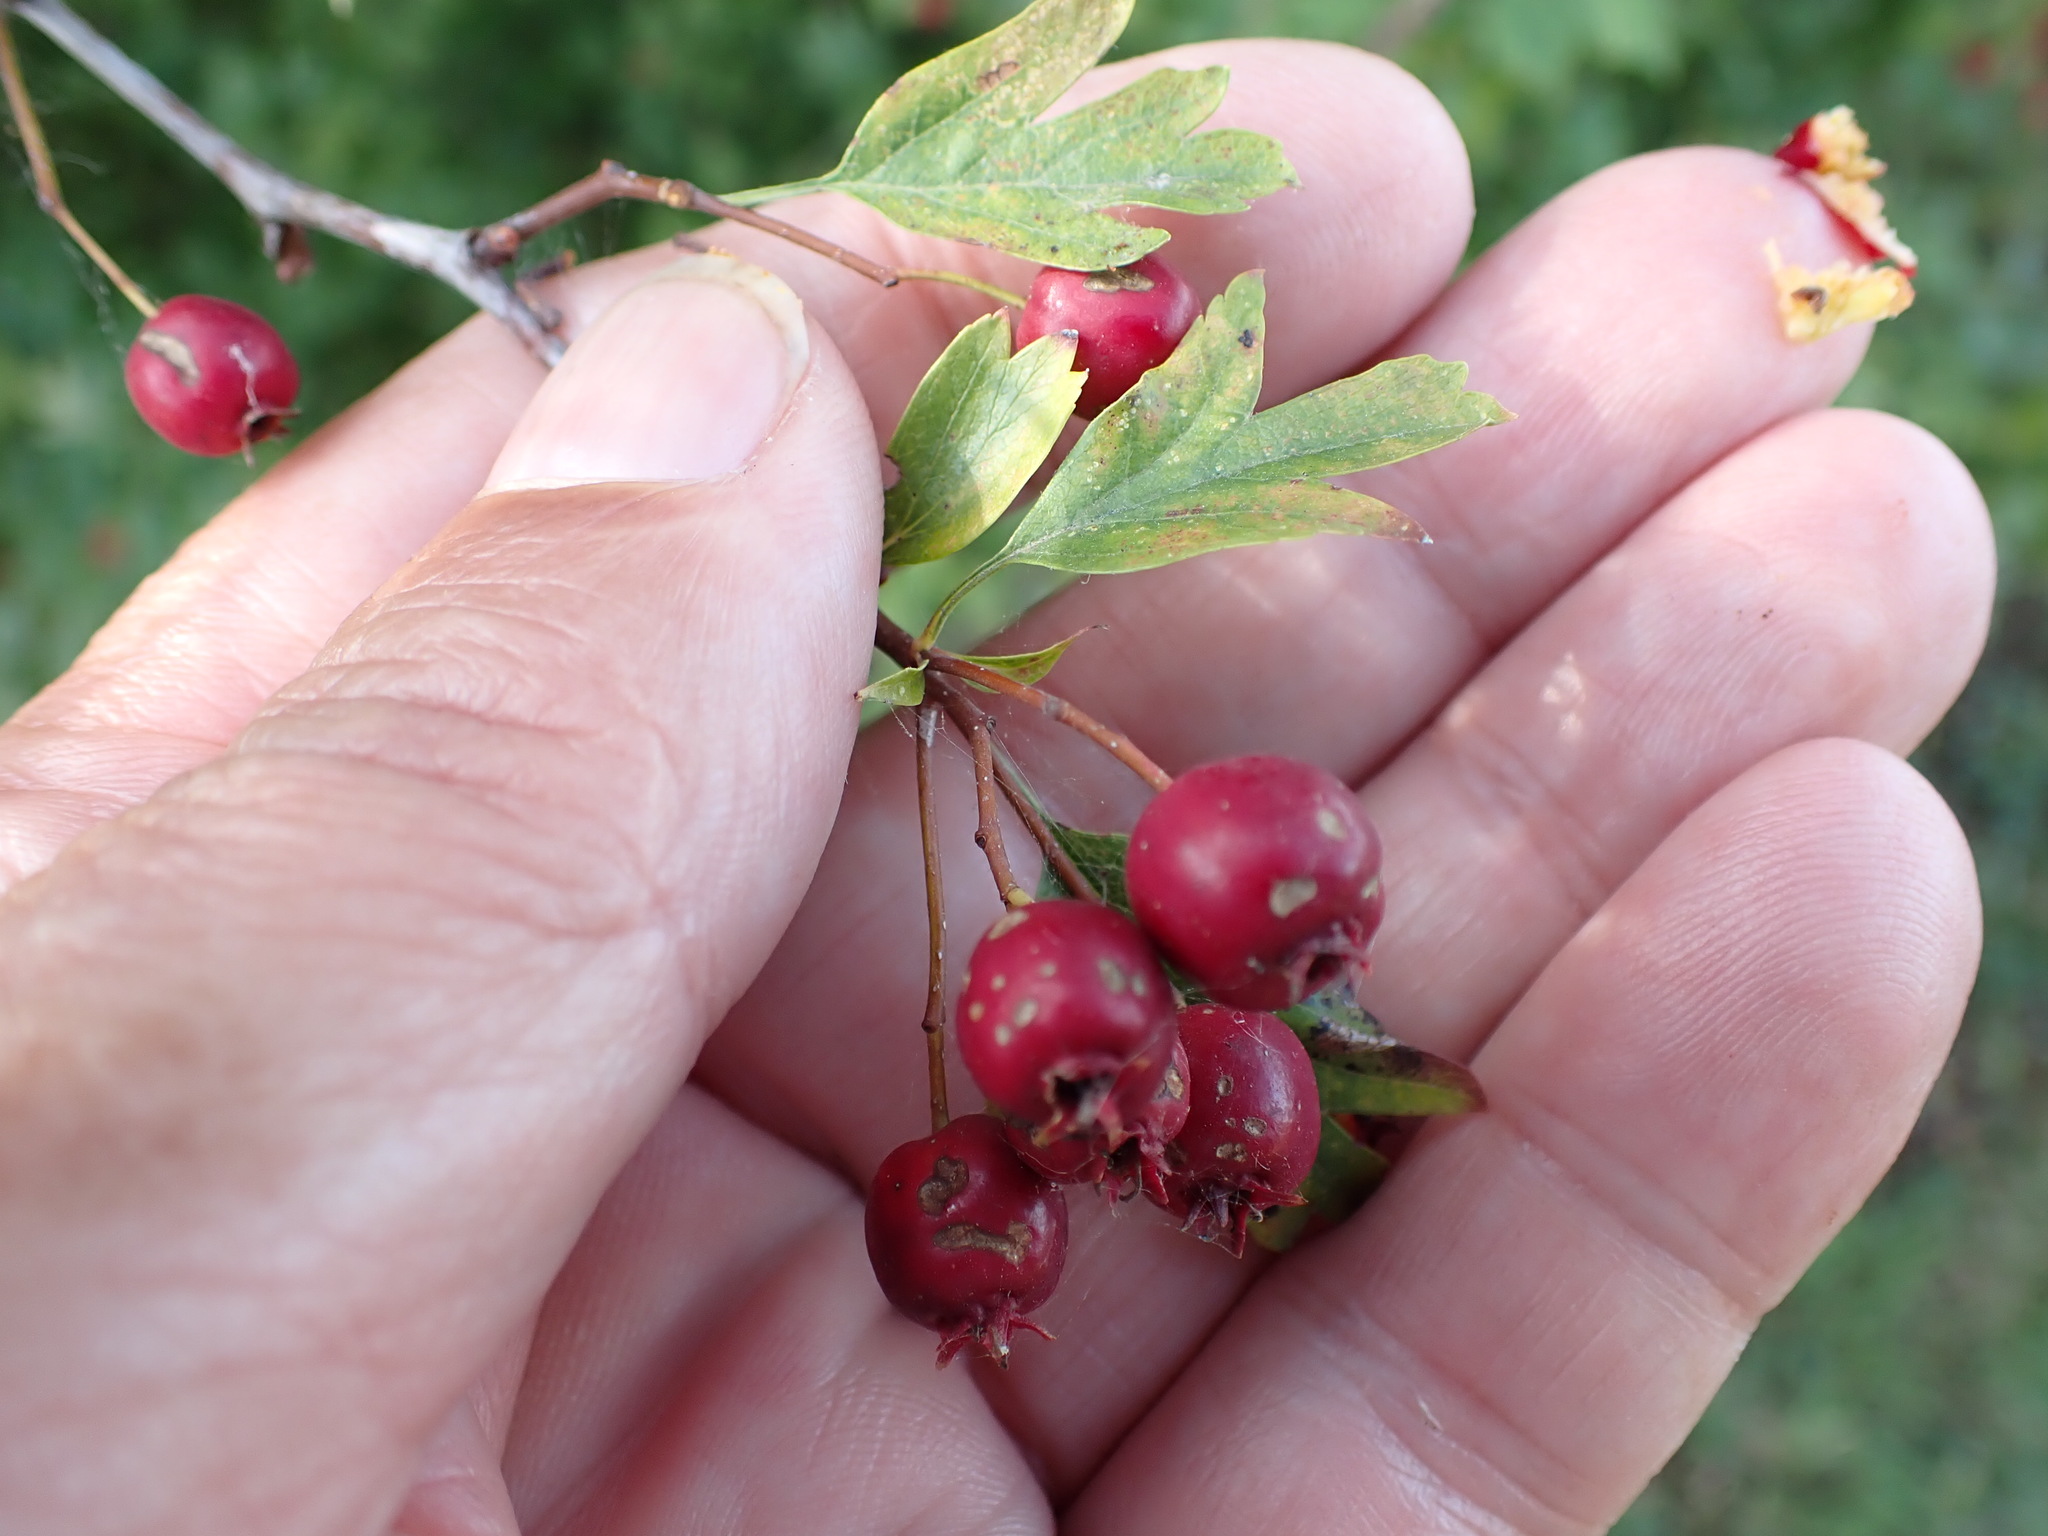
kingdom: Plantae
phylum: Tracheophyta
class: Magnoliopsida
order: Rosales
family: Rosaceae
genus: Crataegus
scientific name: Crataegus monogyna
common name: Hawthorn
